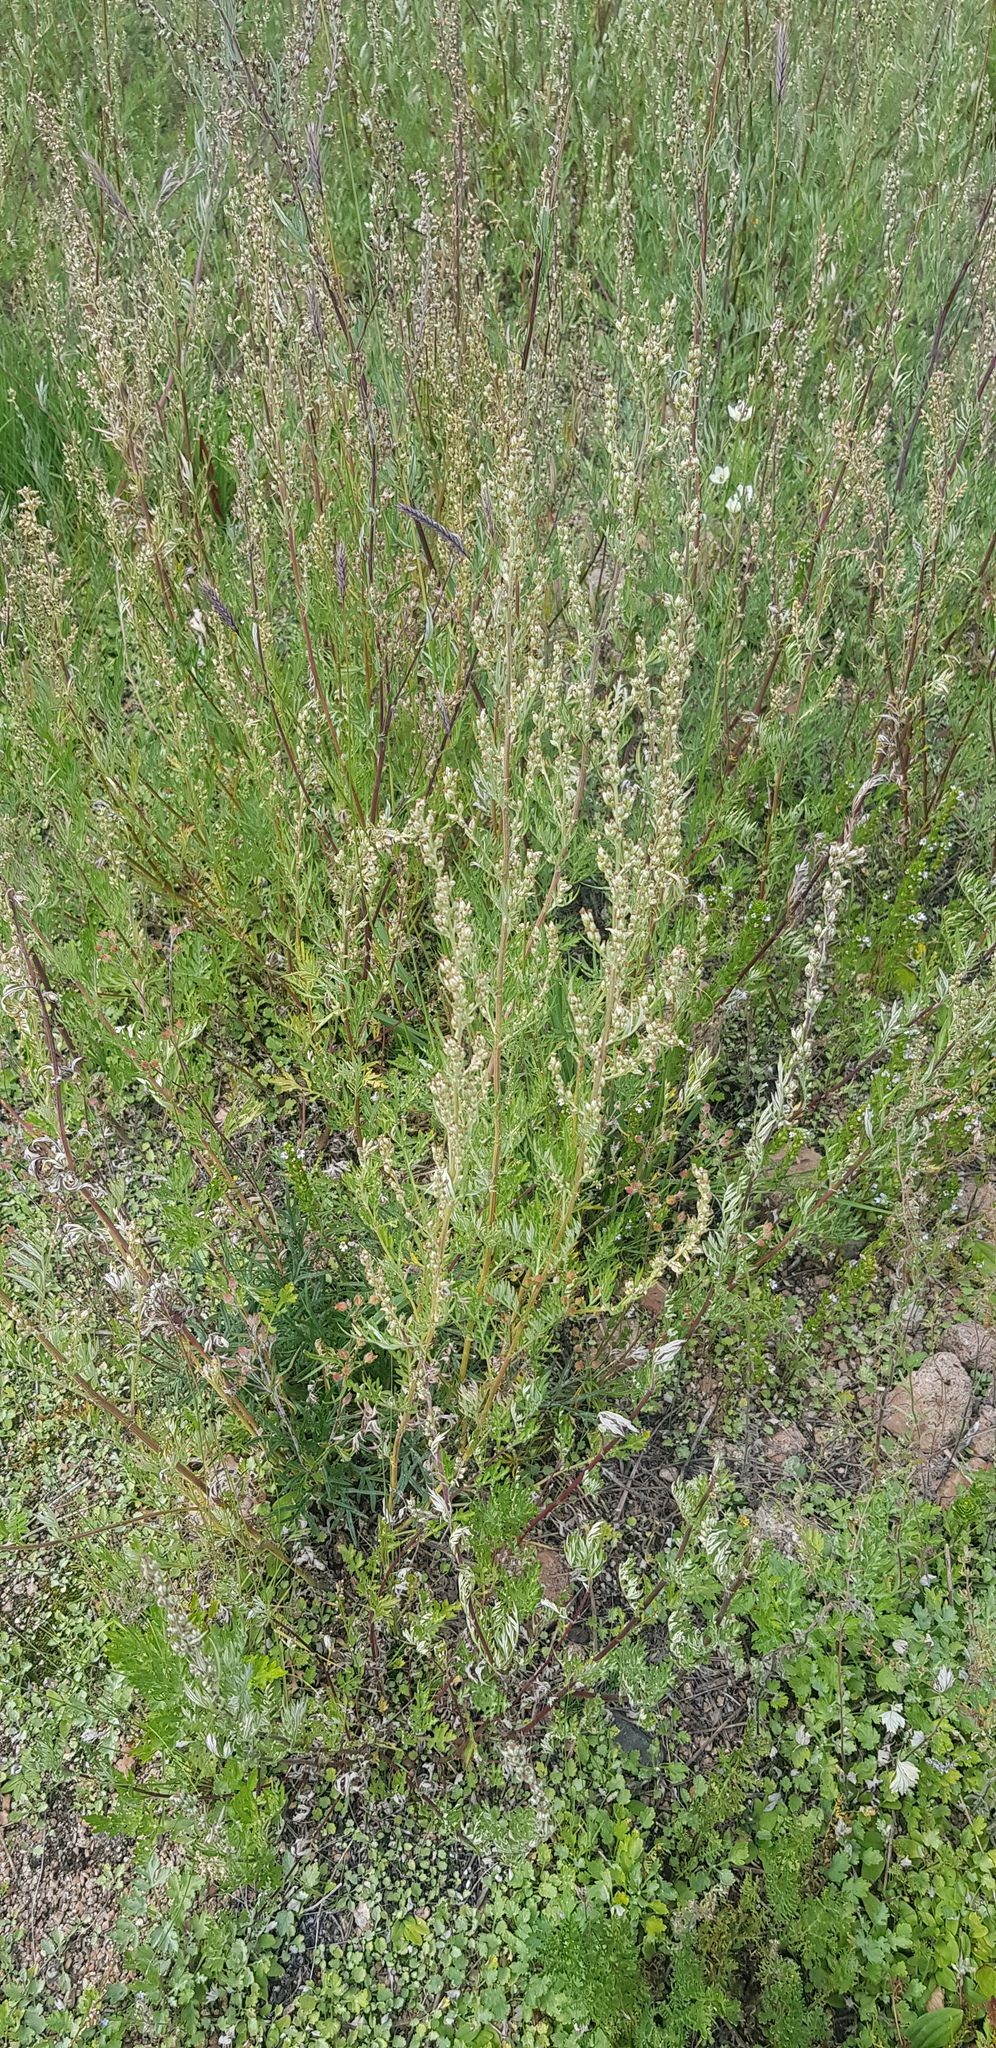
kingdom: Plantae
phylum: Tracheophyta
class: Magnoliopsida
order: Asterales
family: Asteraceae
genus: Artemisia
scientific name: Artemisia dracunculus
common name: Tarragon
